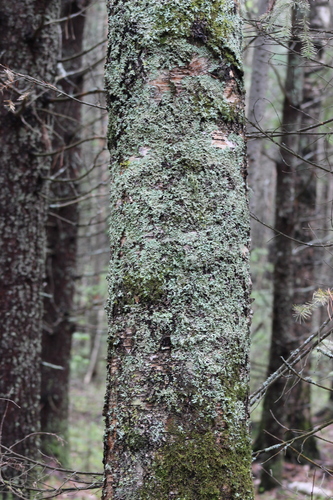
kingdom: Fungi
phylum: Ascomycota
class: Lecanoromycetes
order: Lecanorales
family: Parmeliaceae
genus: Parmelia
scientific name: Parmelia
